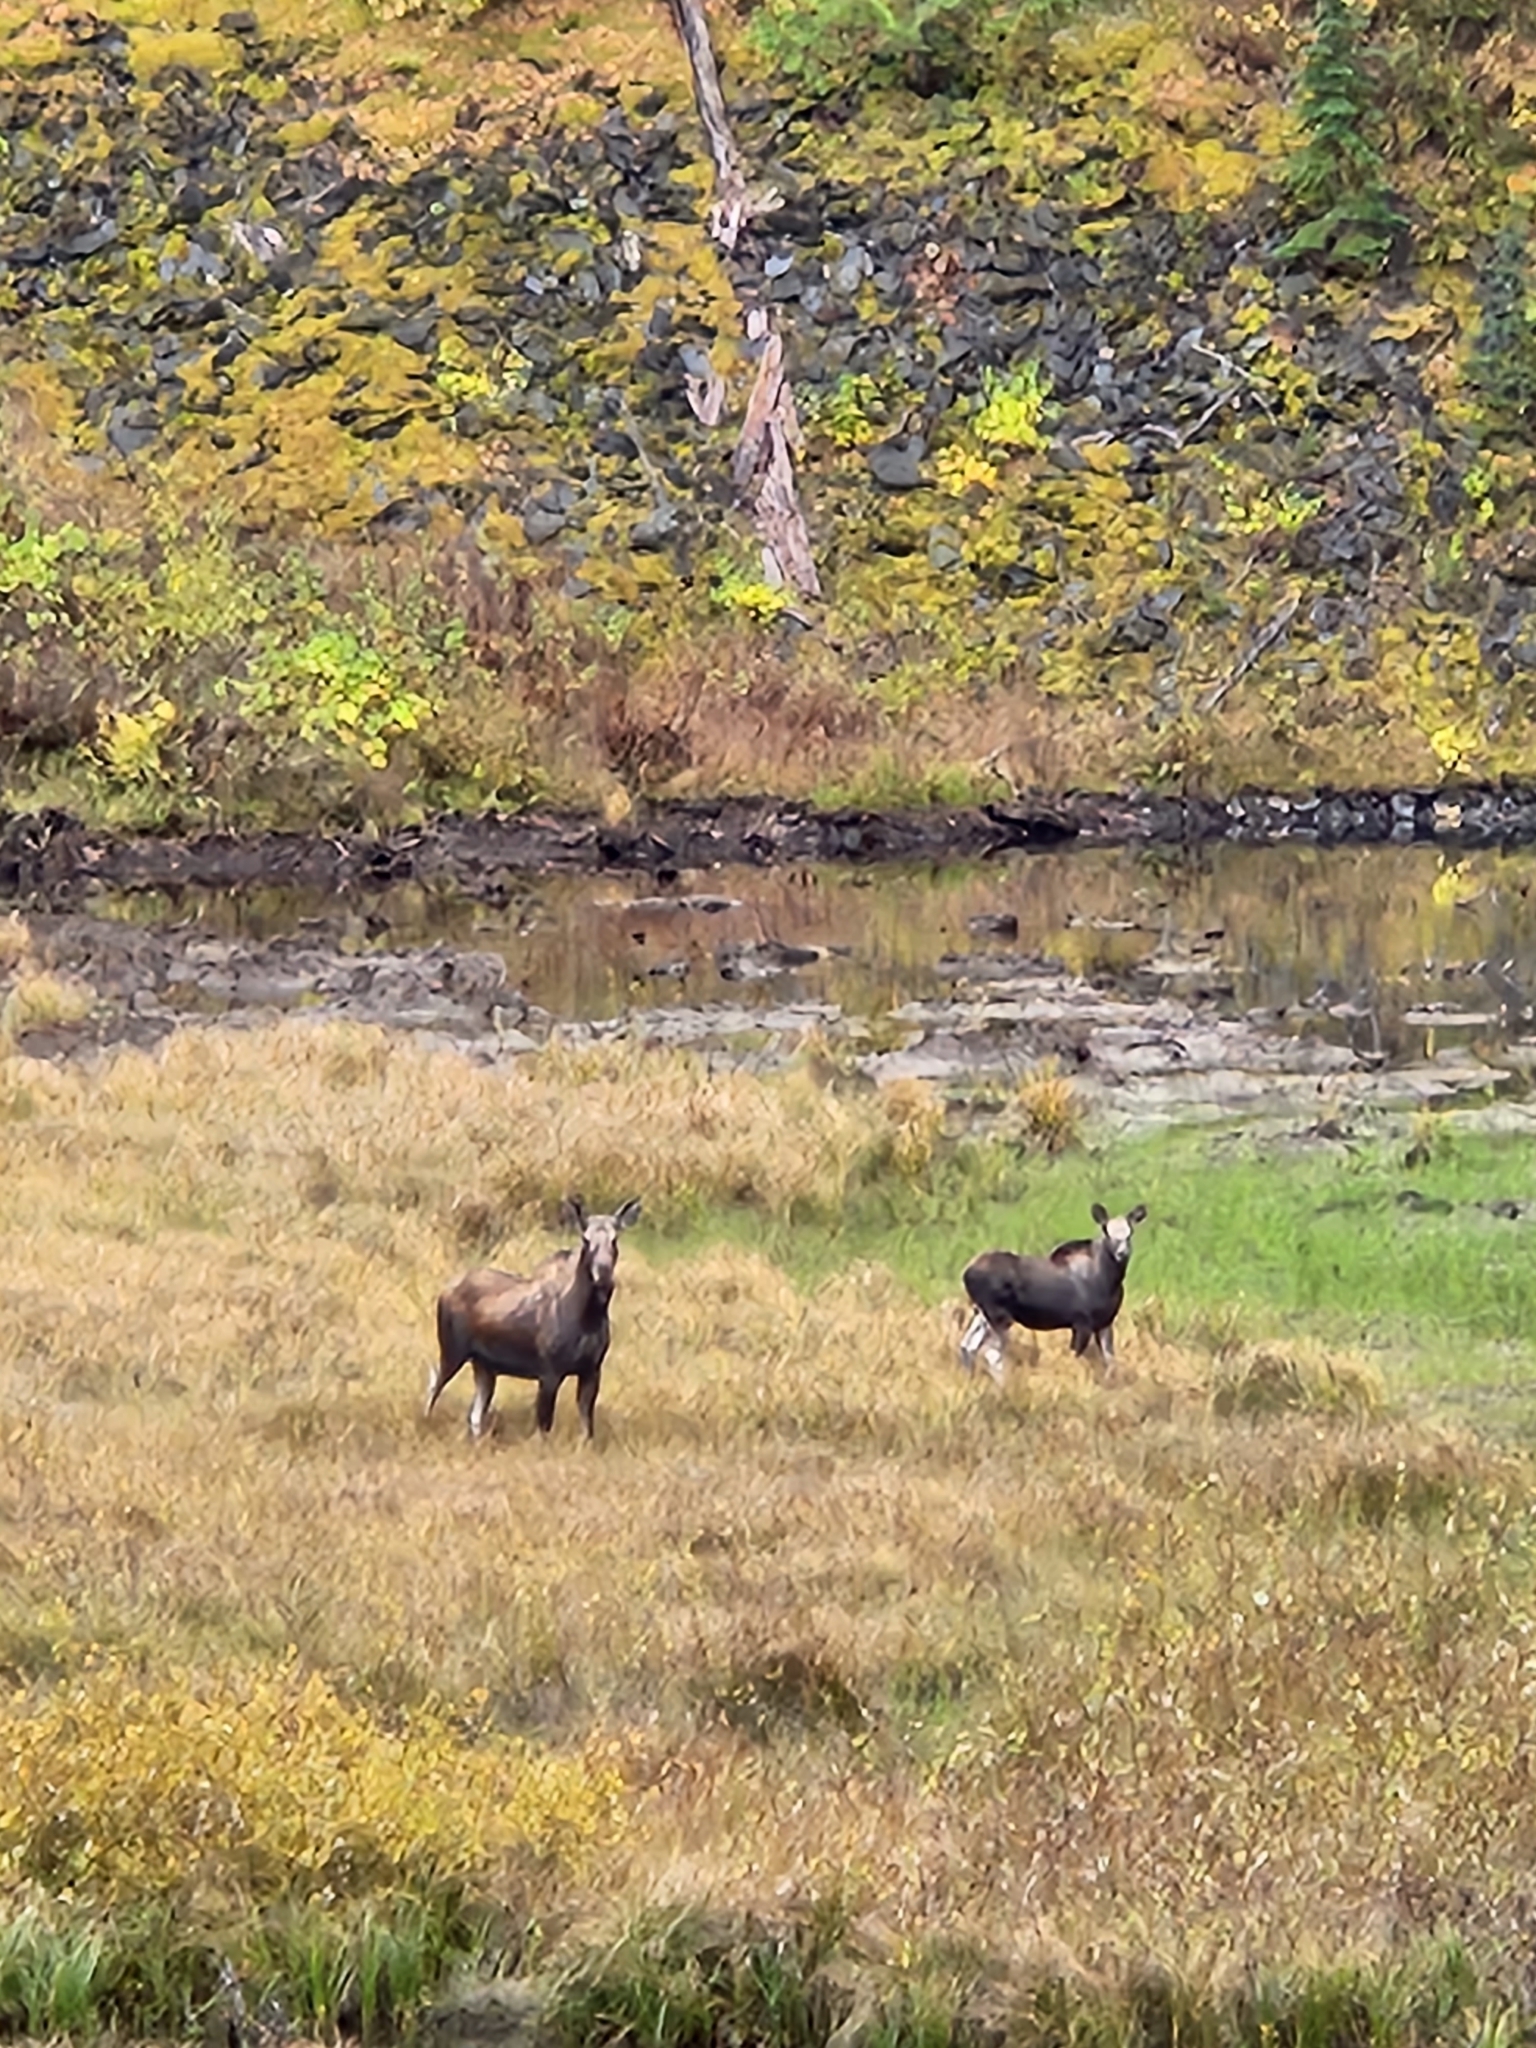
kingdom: Animalia
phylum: Chordata
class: Mammalia
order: Artiodactyla
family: Cervidae
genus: Alces
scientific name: Alces alces
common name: Moose
